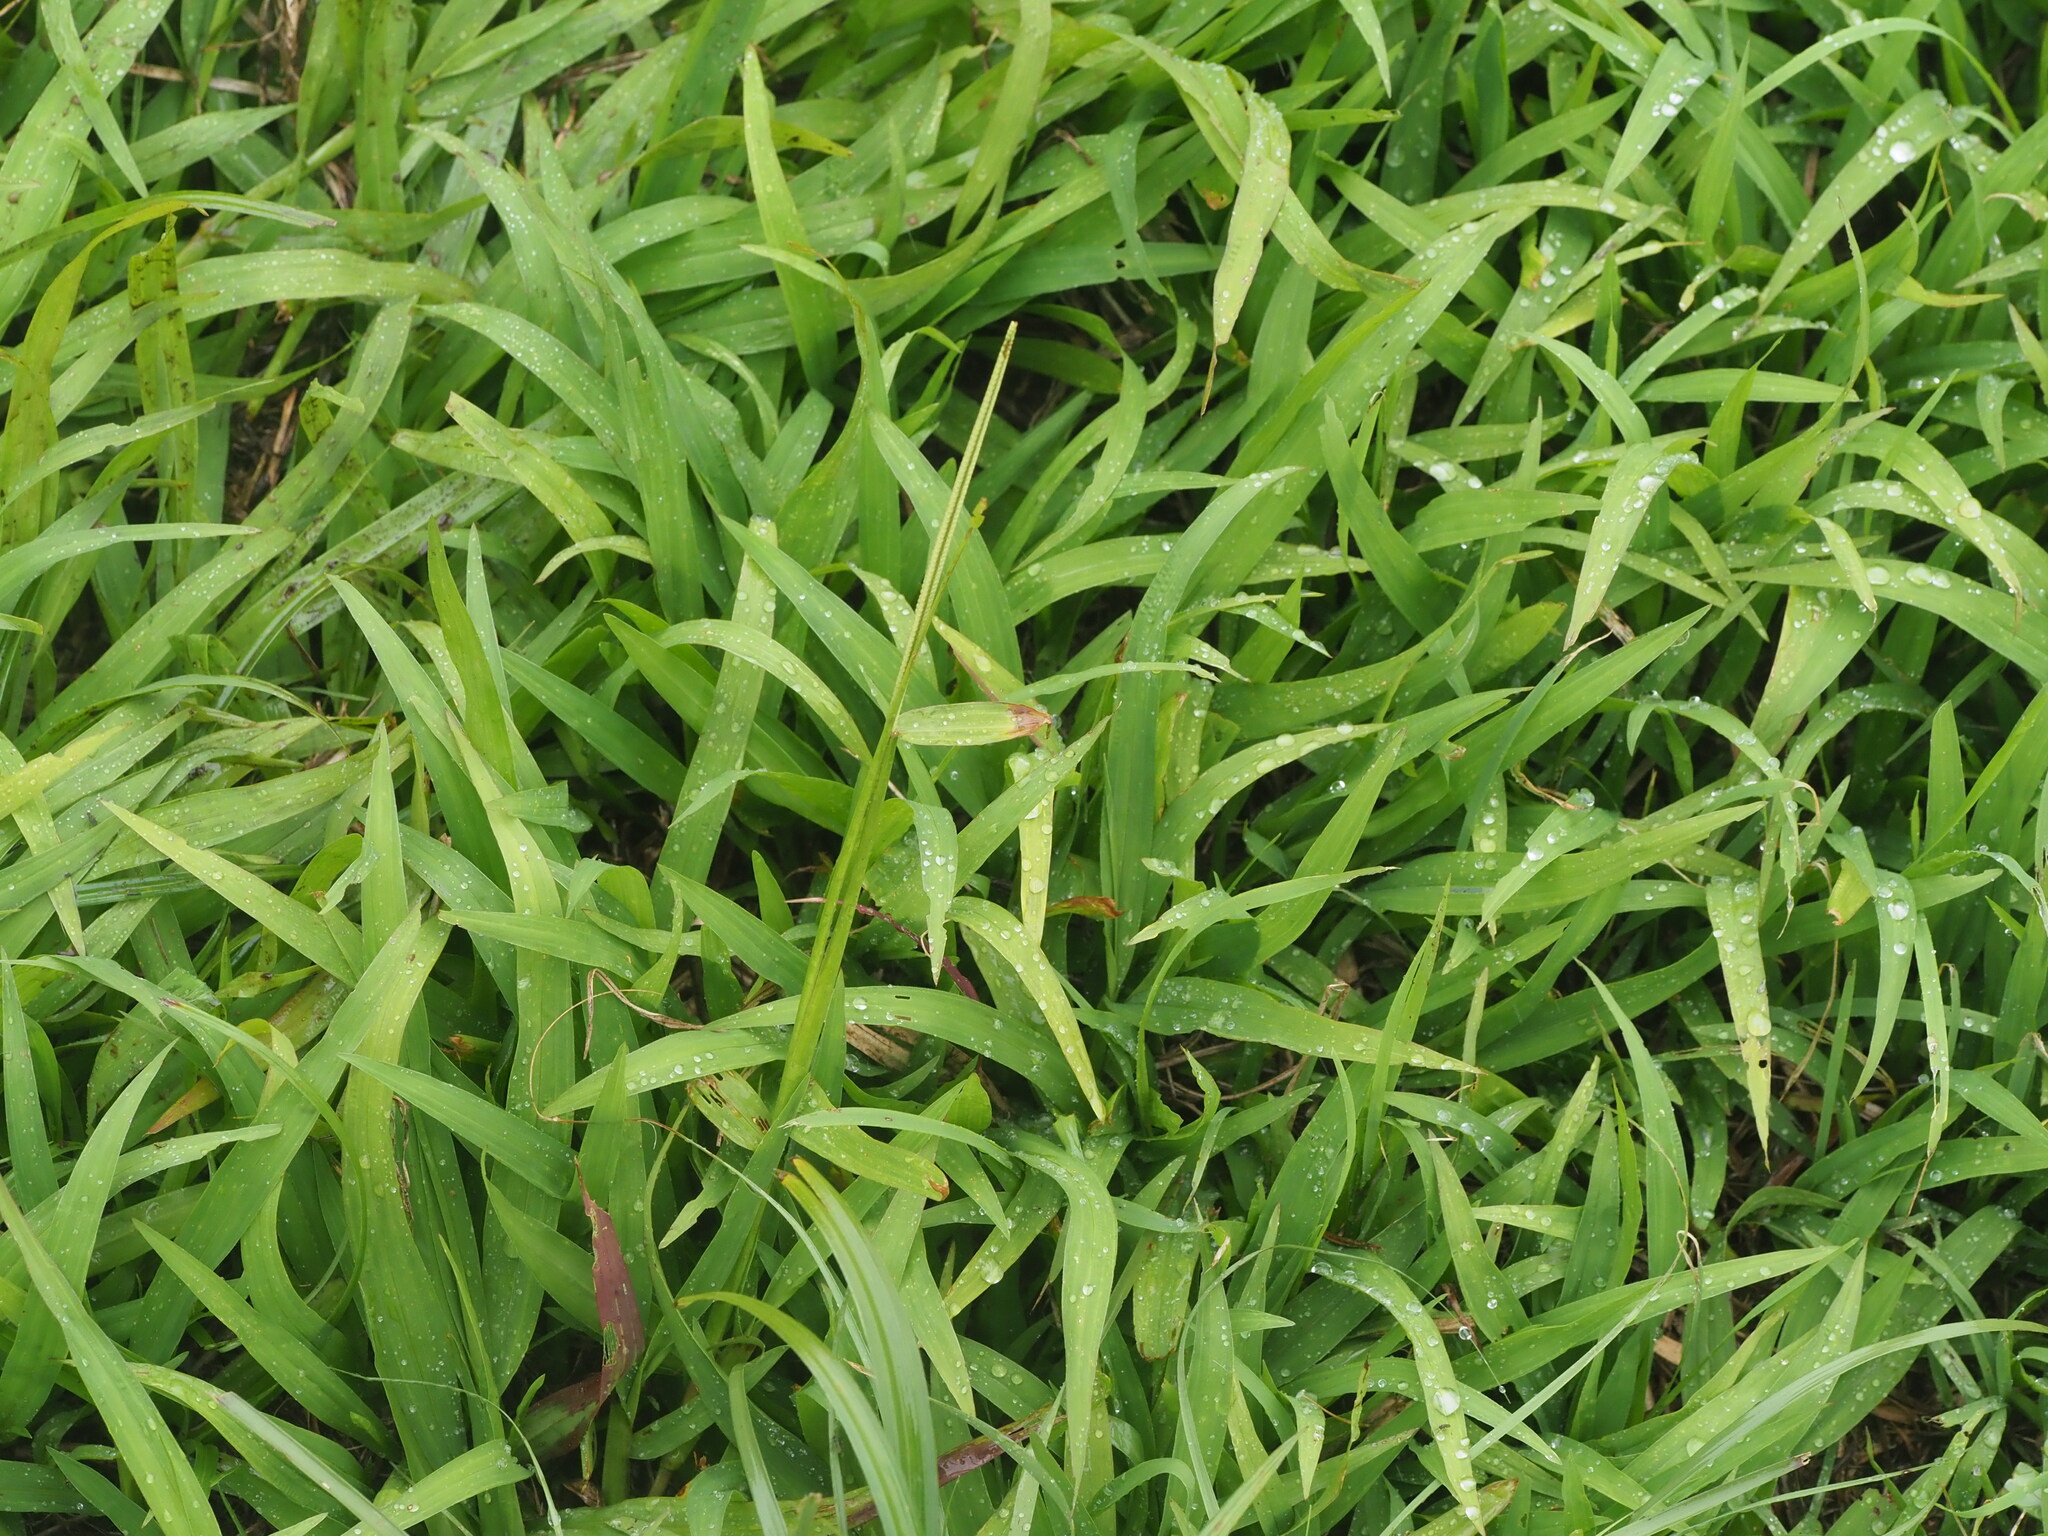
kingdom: Plantae
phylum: Tracheophyta
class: Liliopsida
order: Poales
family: Poaceae
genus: Paspalum
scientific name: Paspalum conjugatum
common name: Hilograss
